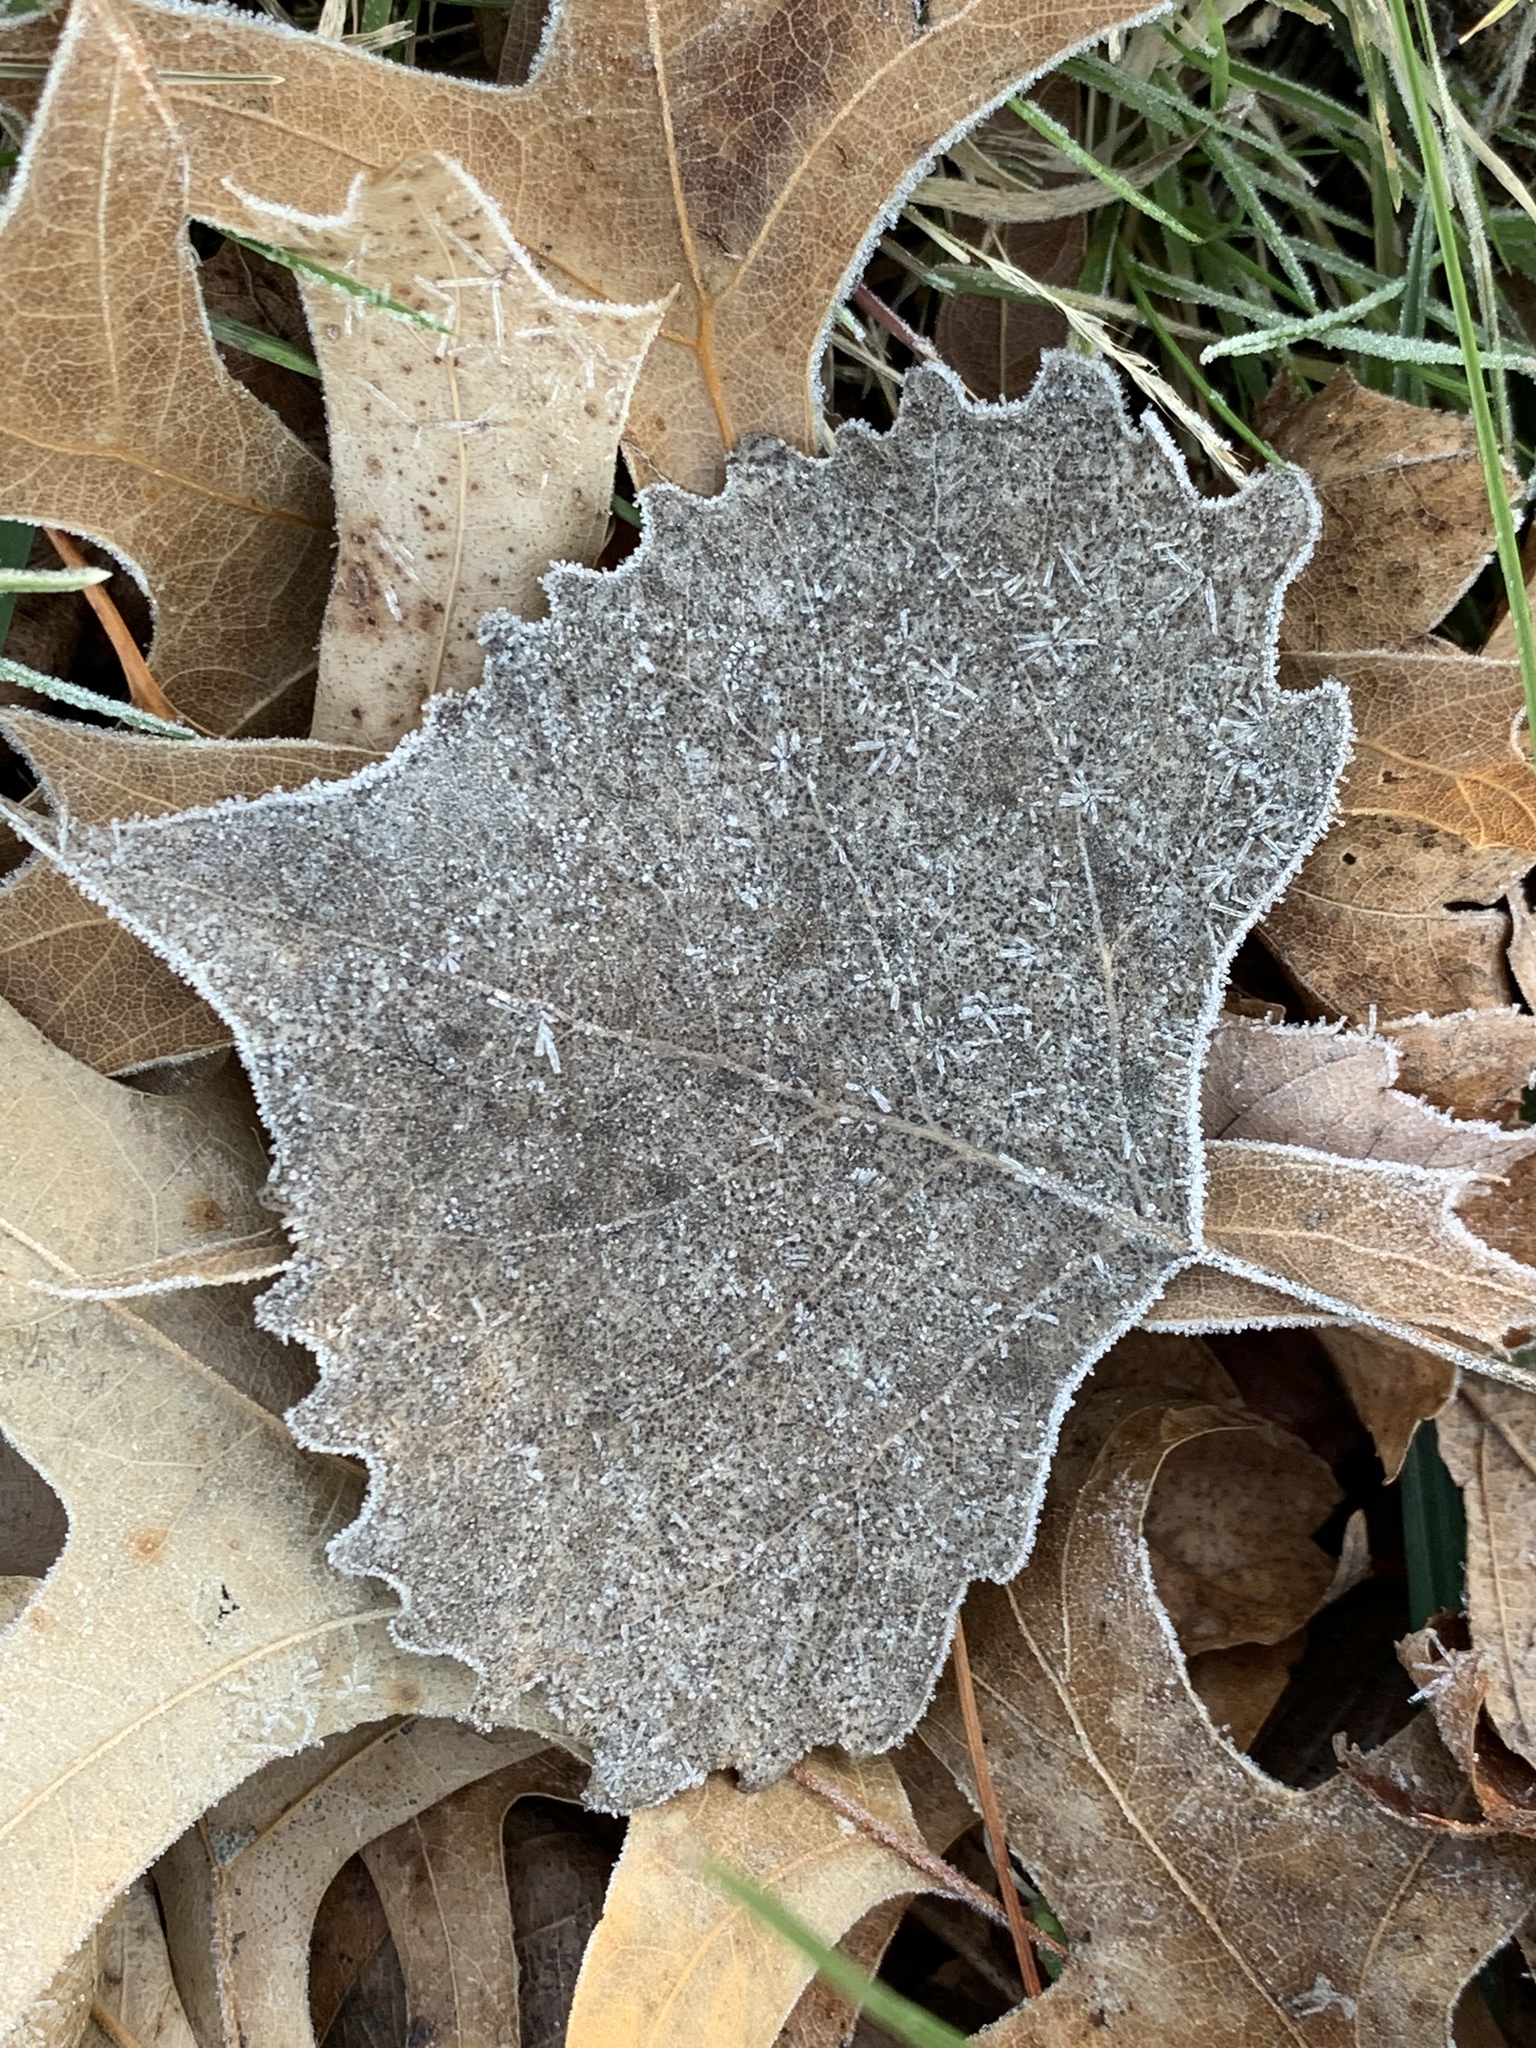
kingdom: Plantae
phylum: Tracheophyta
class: Magnoliopsida
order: Malpighiales
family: Salicaceae
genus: Populus
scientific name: Populus deltoides
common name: Eastern cottonwood
